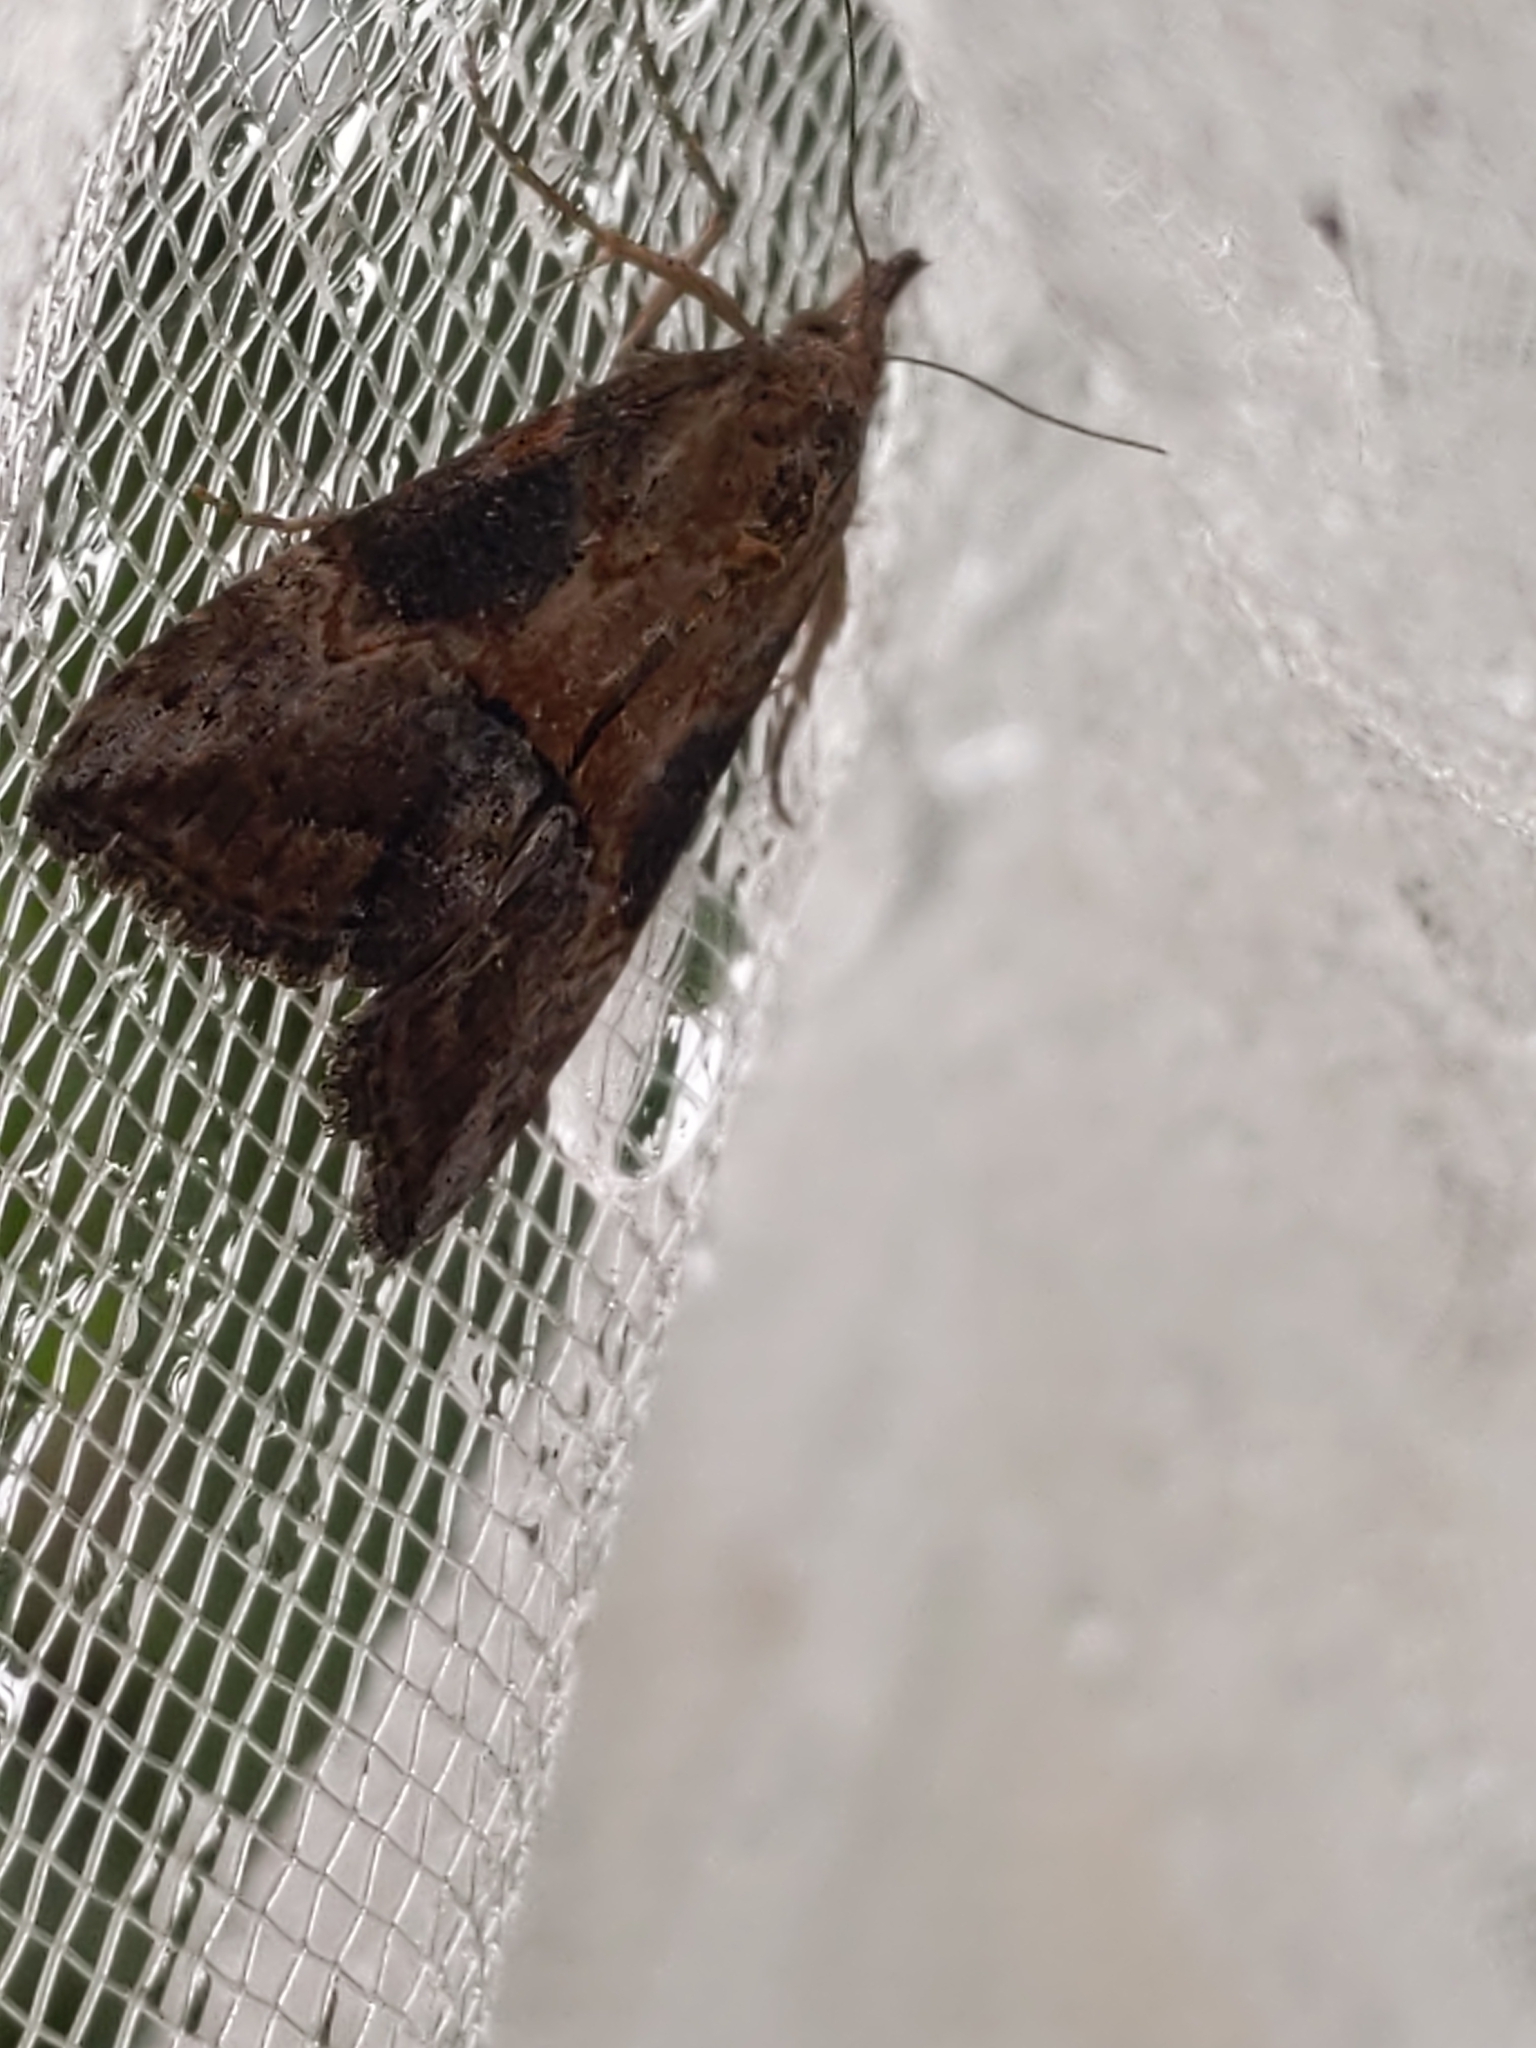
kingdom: Animalia
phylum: Arthropoda
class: Insecta
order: Lepidoptera
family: Erebidae
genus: Hypena
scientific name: Hypena scabra
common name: Green cloverworm
